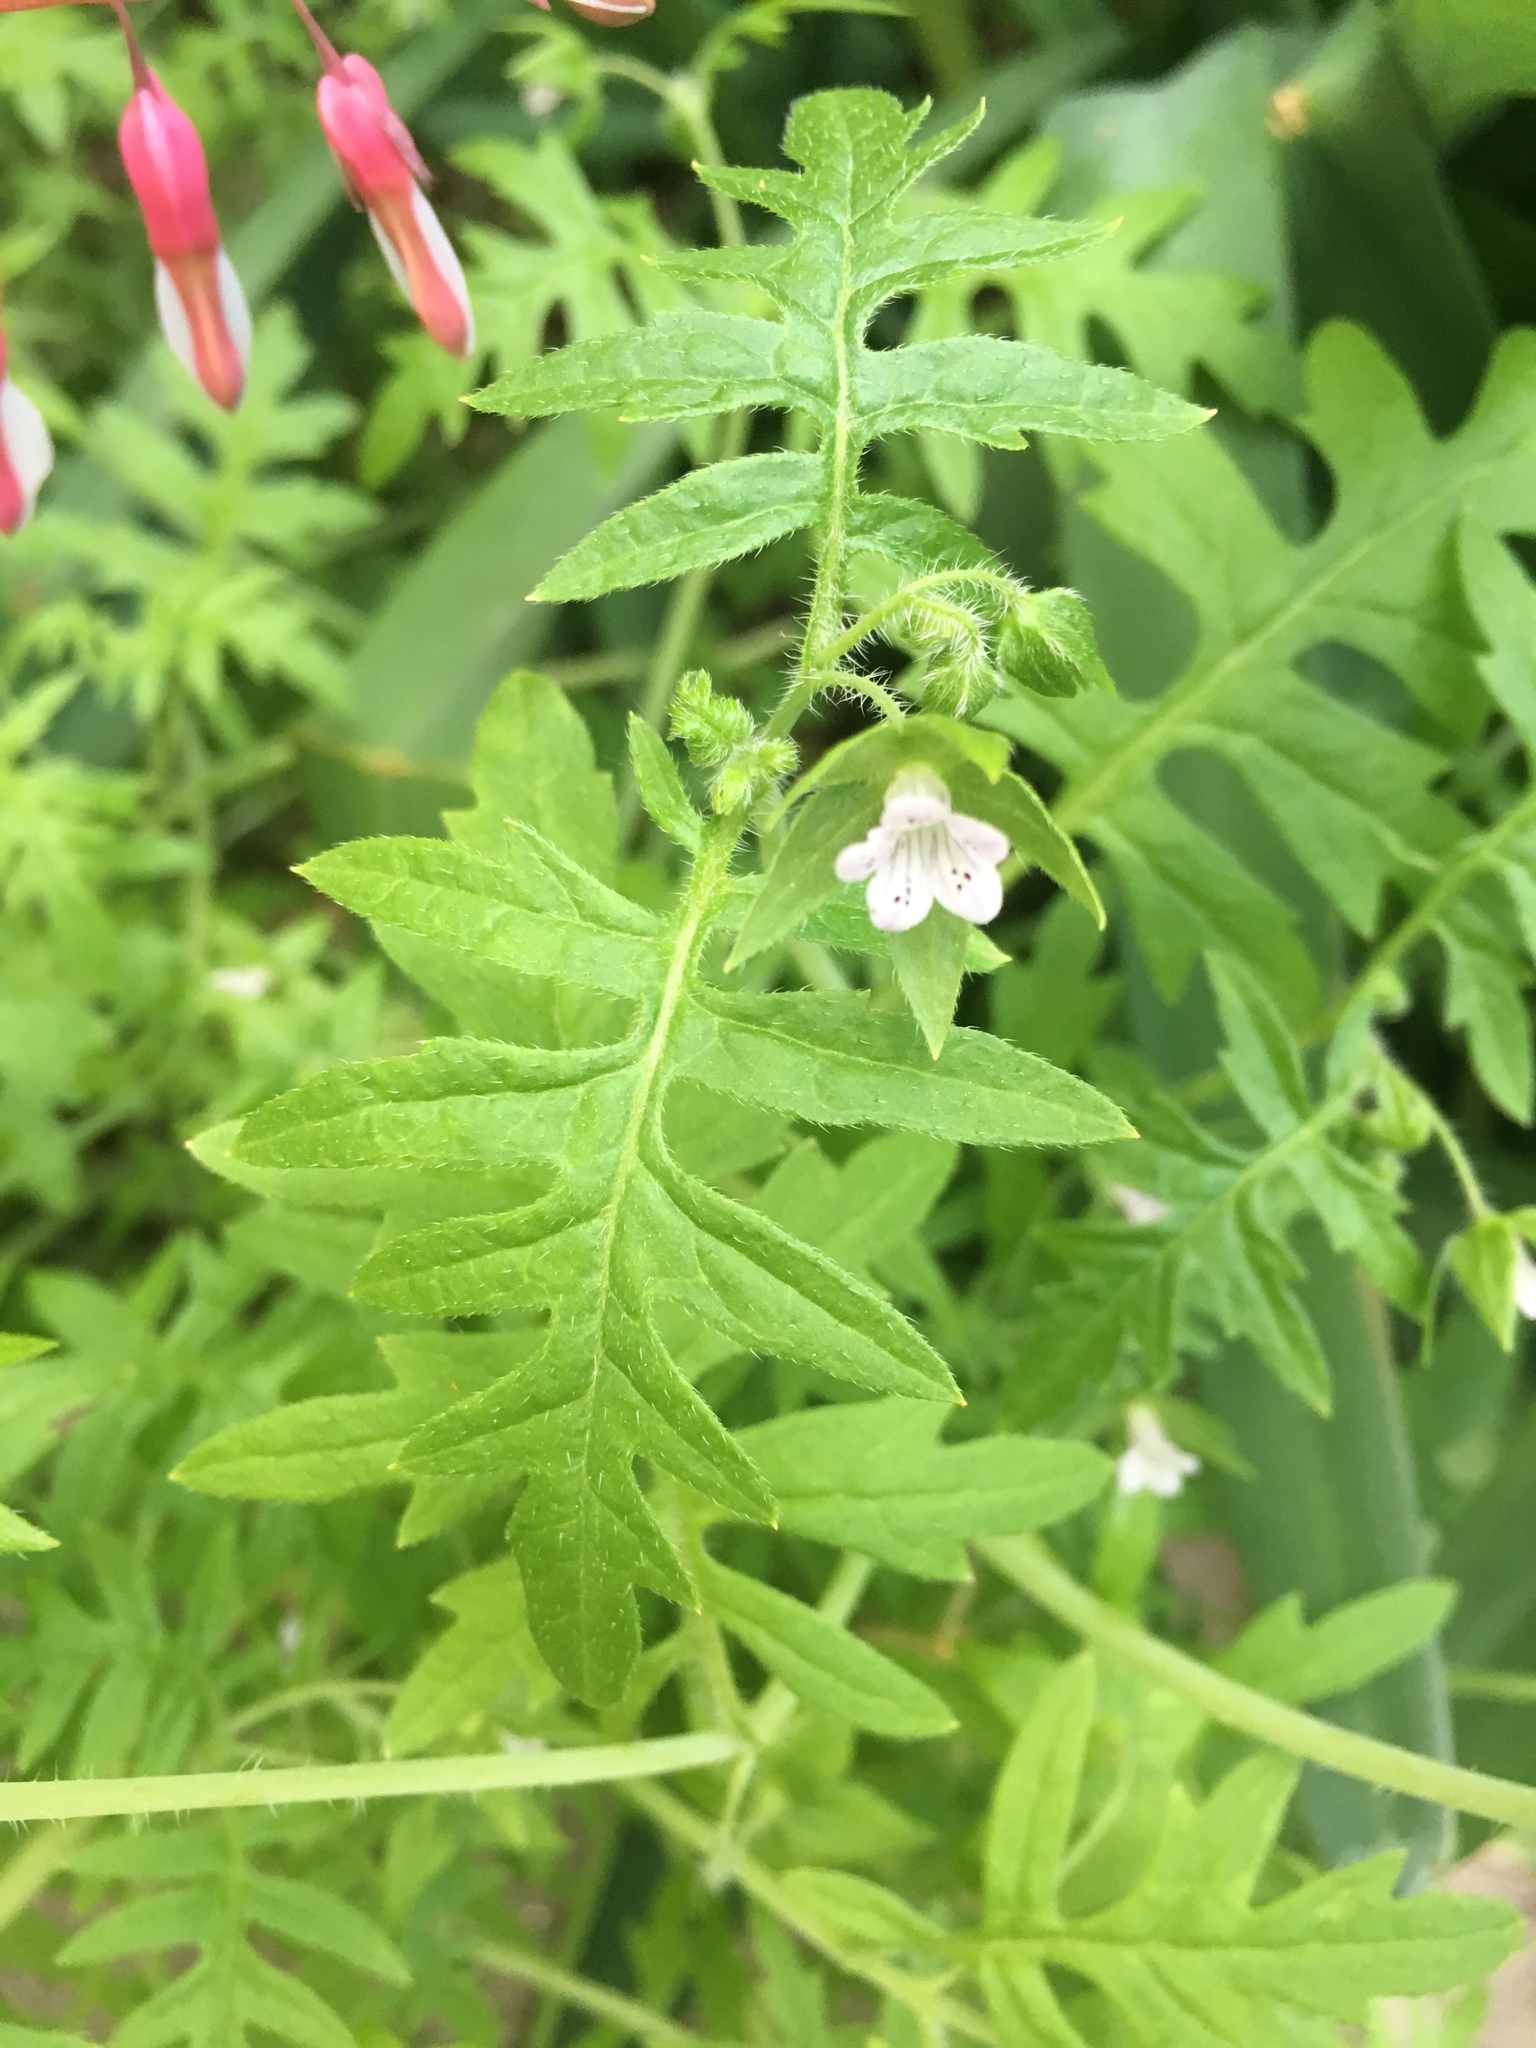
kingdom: Plantae
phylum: Tracheophyta
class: Magnoliopsida
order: Boraginales
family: Hydrophyllaceae
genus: Ellisia
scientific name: Ellisia nyctelea
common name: Aunt lucy
